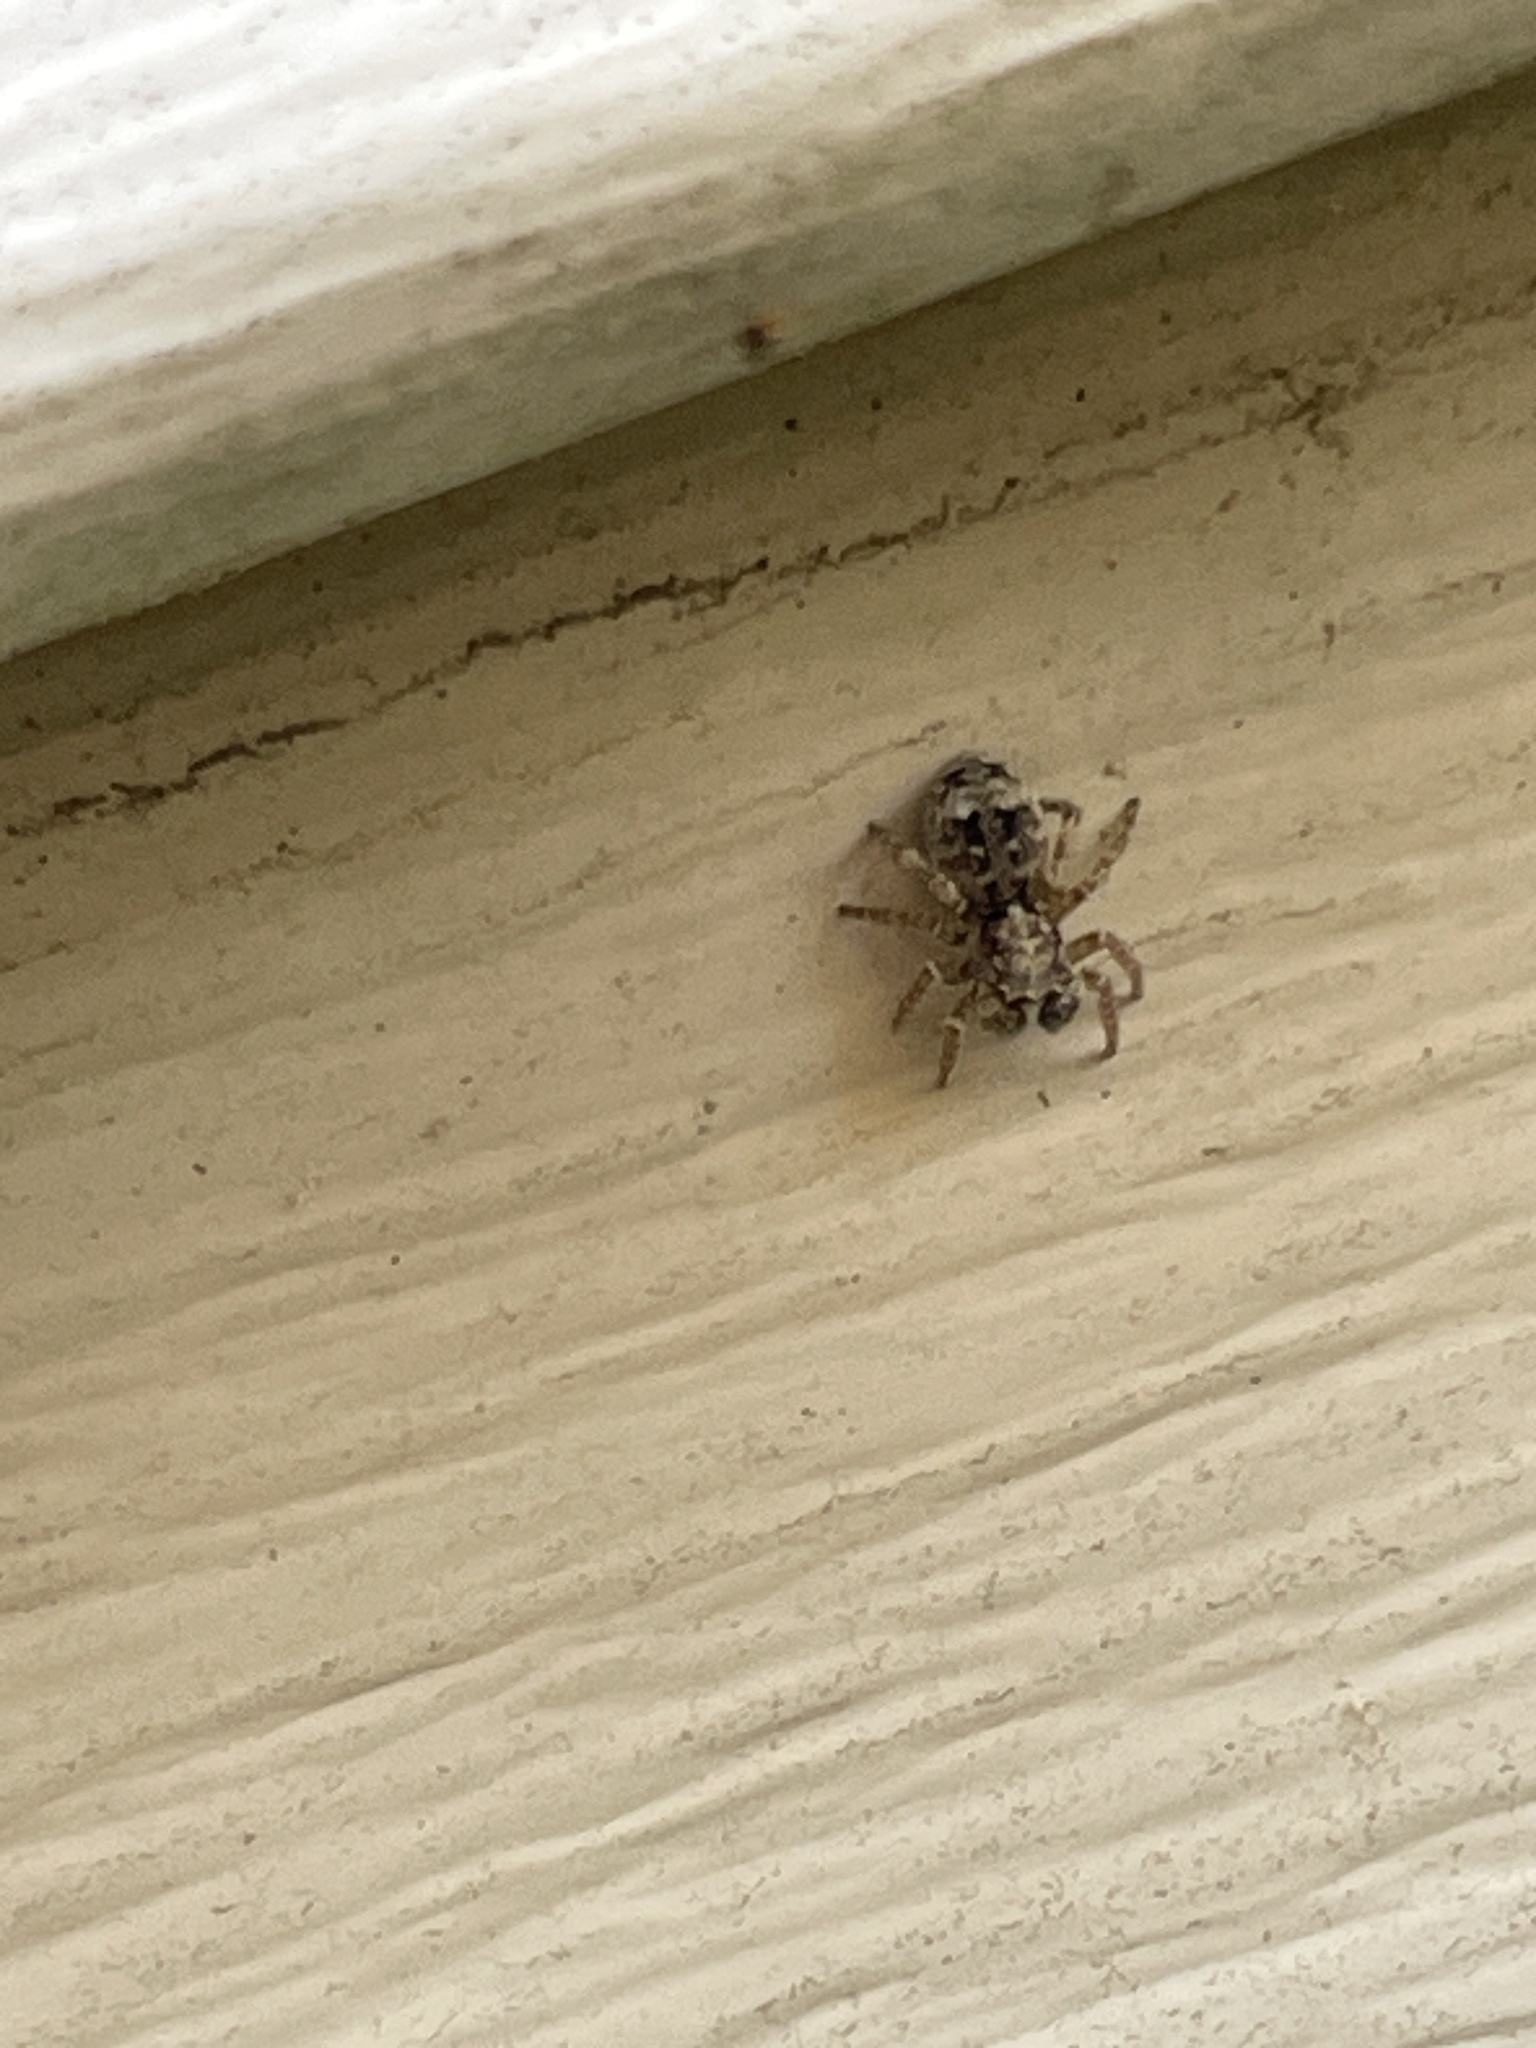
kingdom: Animalia
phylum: Arthropoda
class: Arachnida
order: Araneae
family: Salticidae
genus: Attulus
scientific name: Attulus fasciger
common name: Asiatic wall jumping spider
